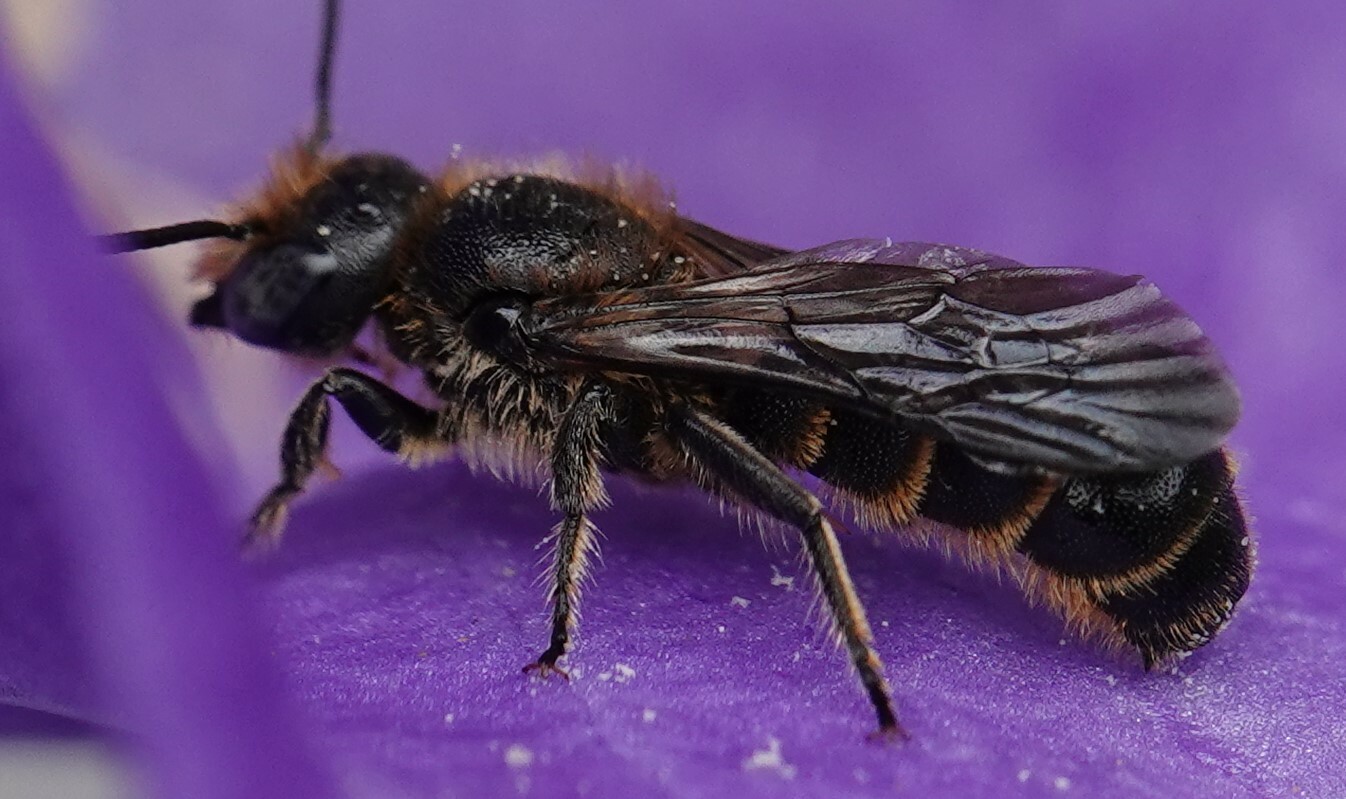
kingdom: Animalia
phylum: Arthropoda
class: Insecta
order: Hymenoptera
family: Megachilidae
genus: Chelostoma
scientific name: Chelostoma rapunculi
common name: Rampion scissor bee
